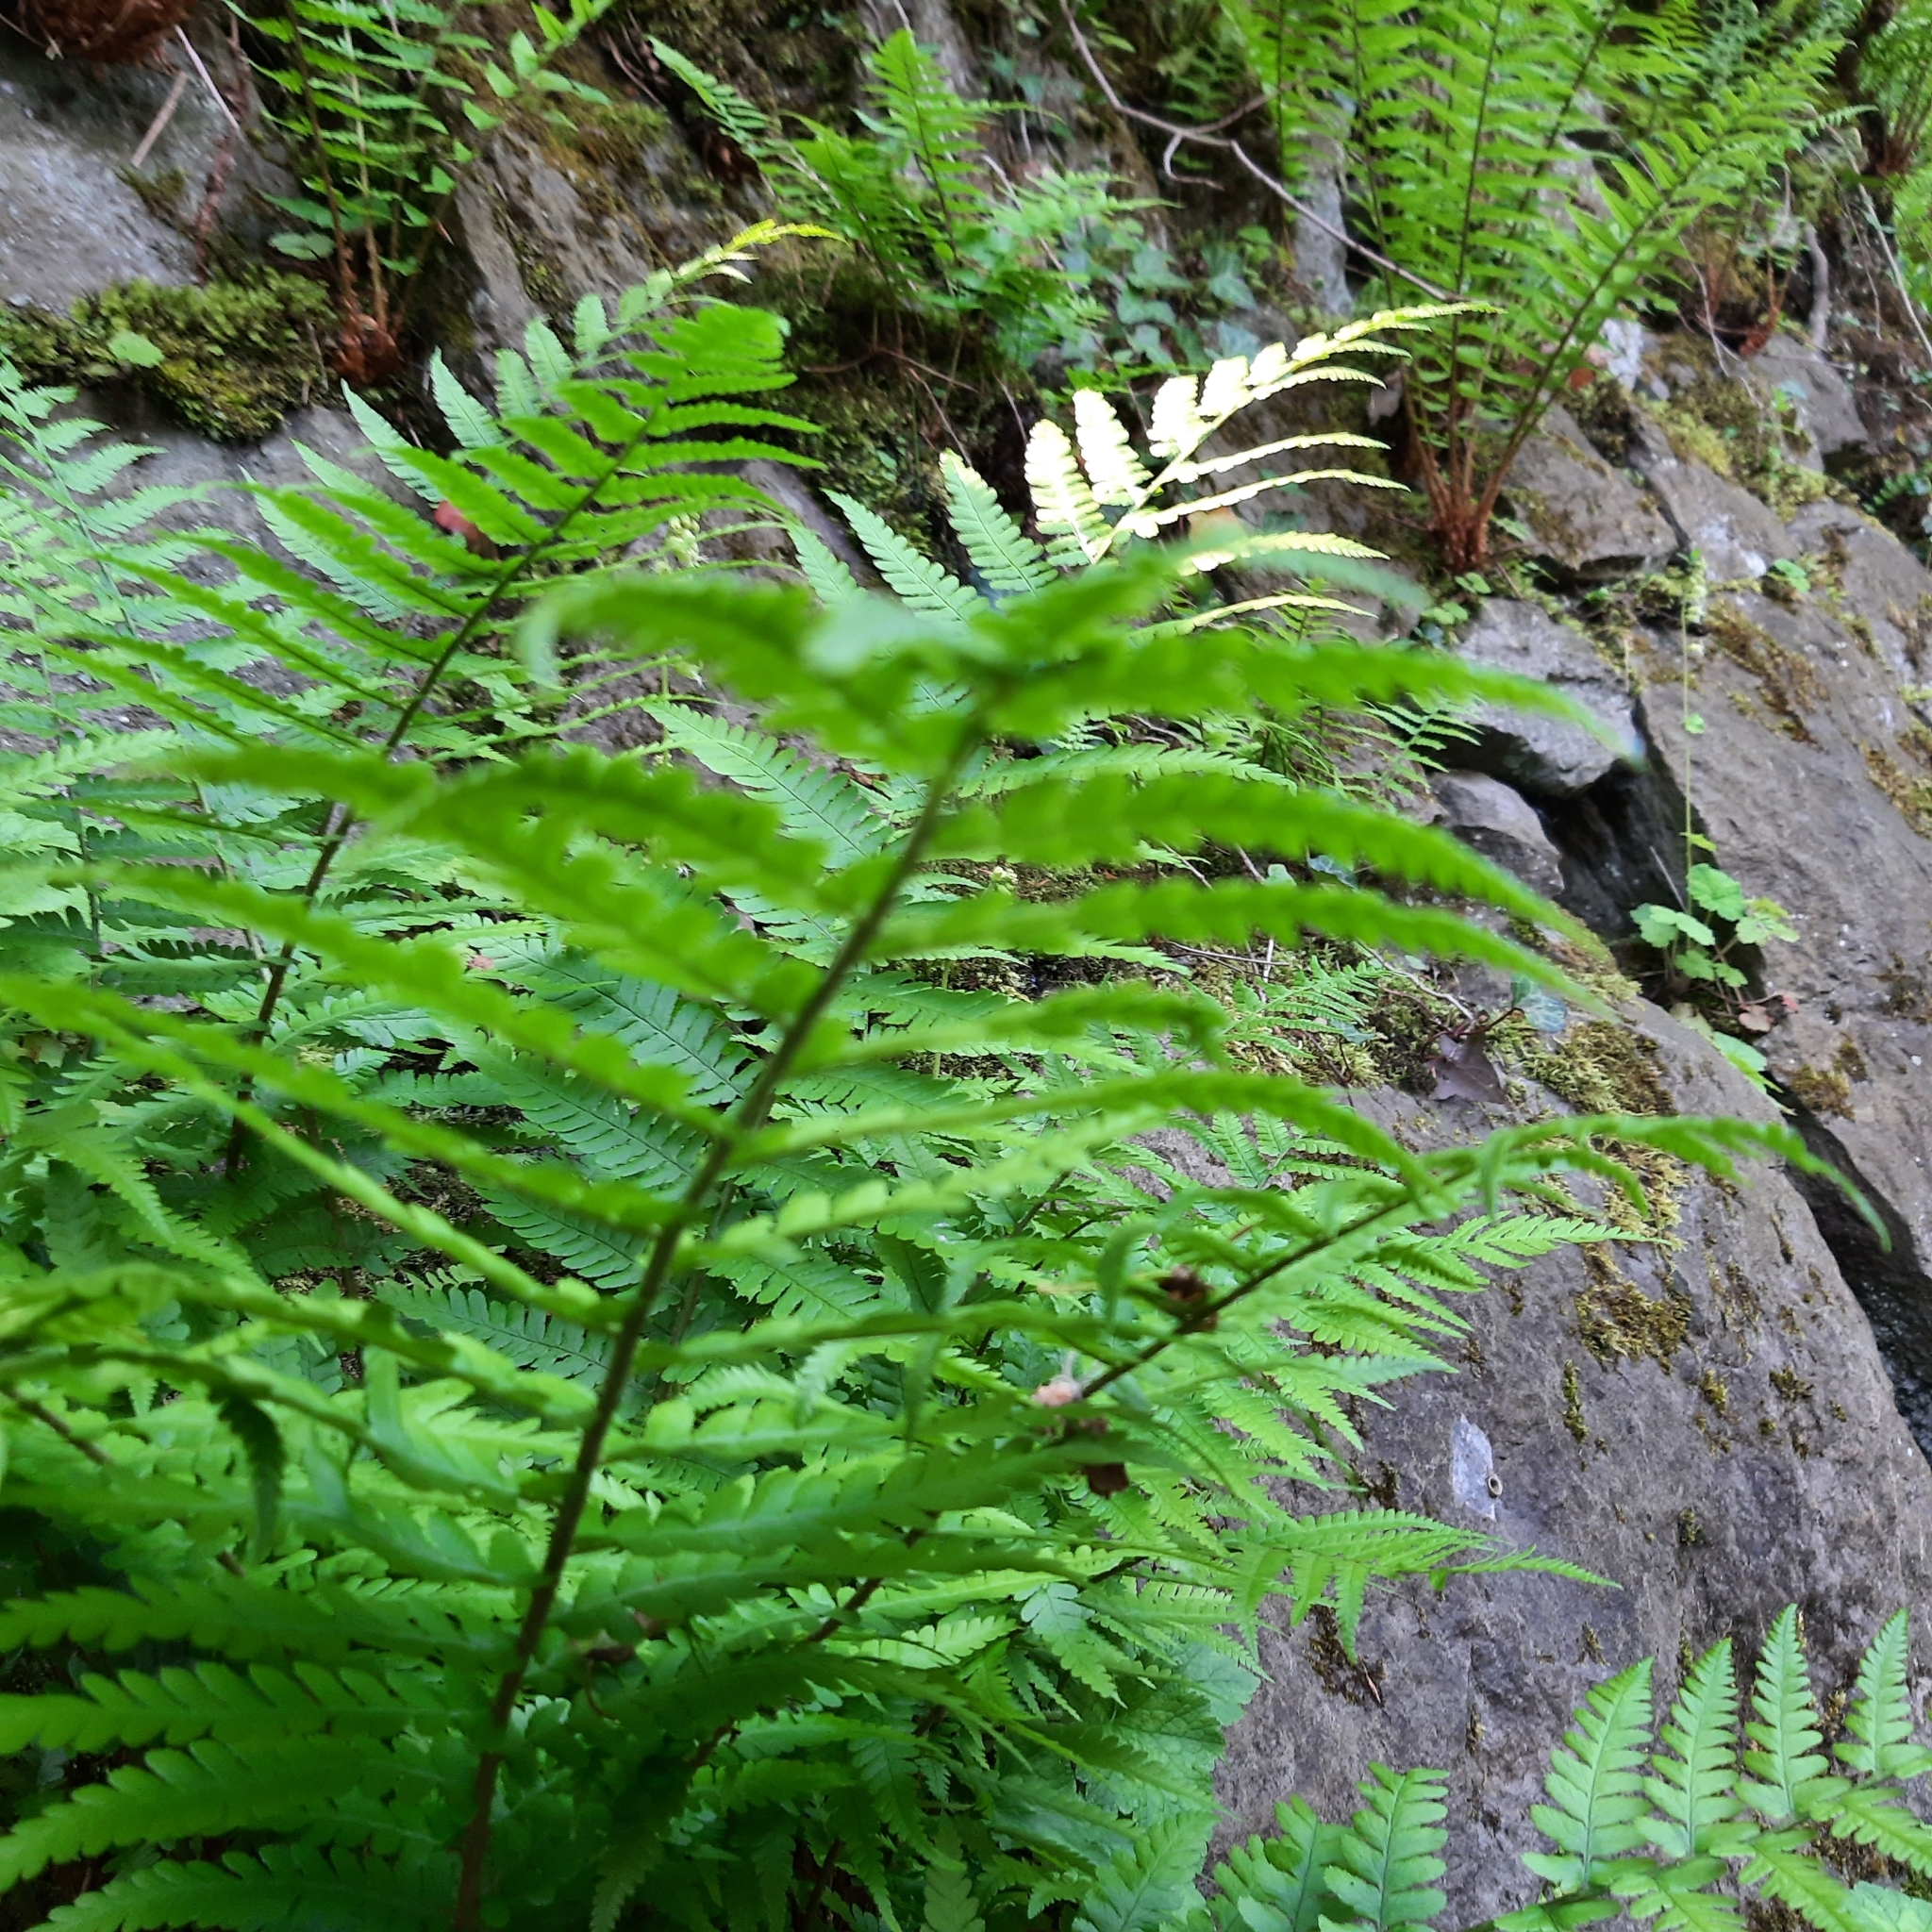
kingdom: Plantae
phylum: Tracheophyta
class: Polypodiopsida
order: Polypodiales
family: Dryopteridaceae
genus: Dryopteris
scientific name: Dryopteris filix-mas
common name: Male fern
